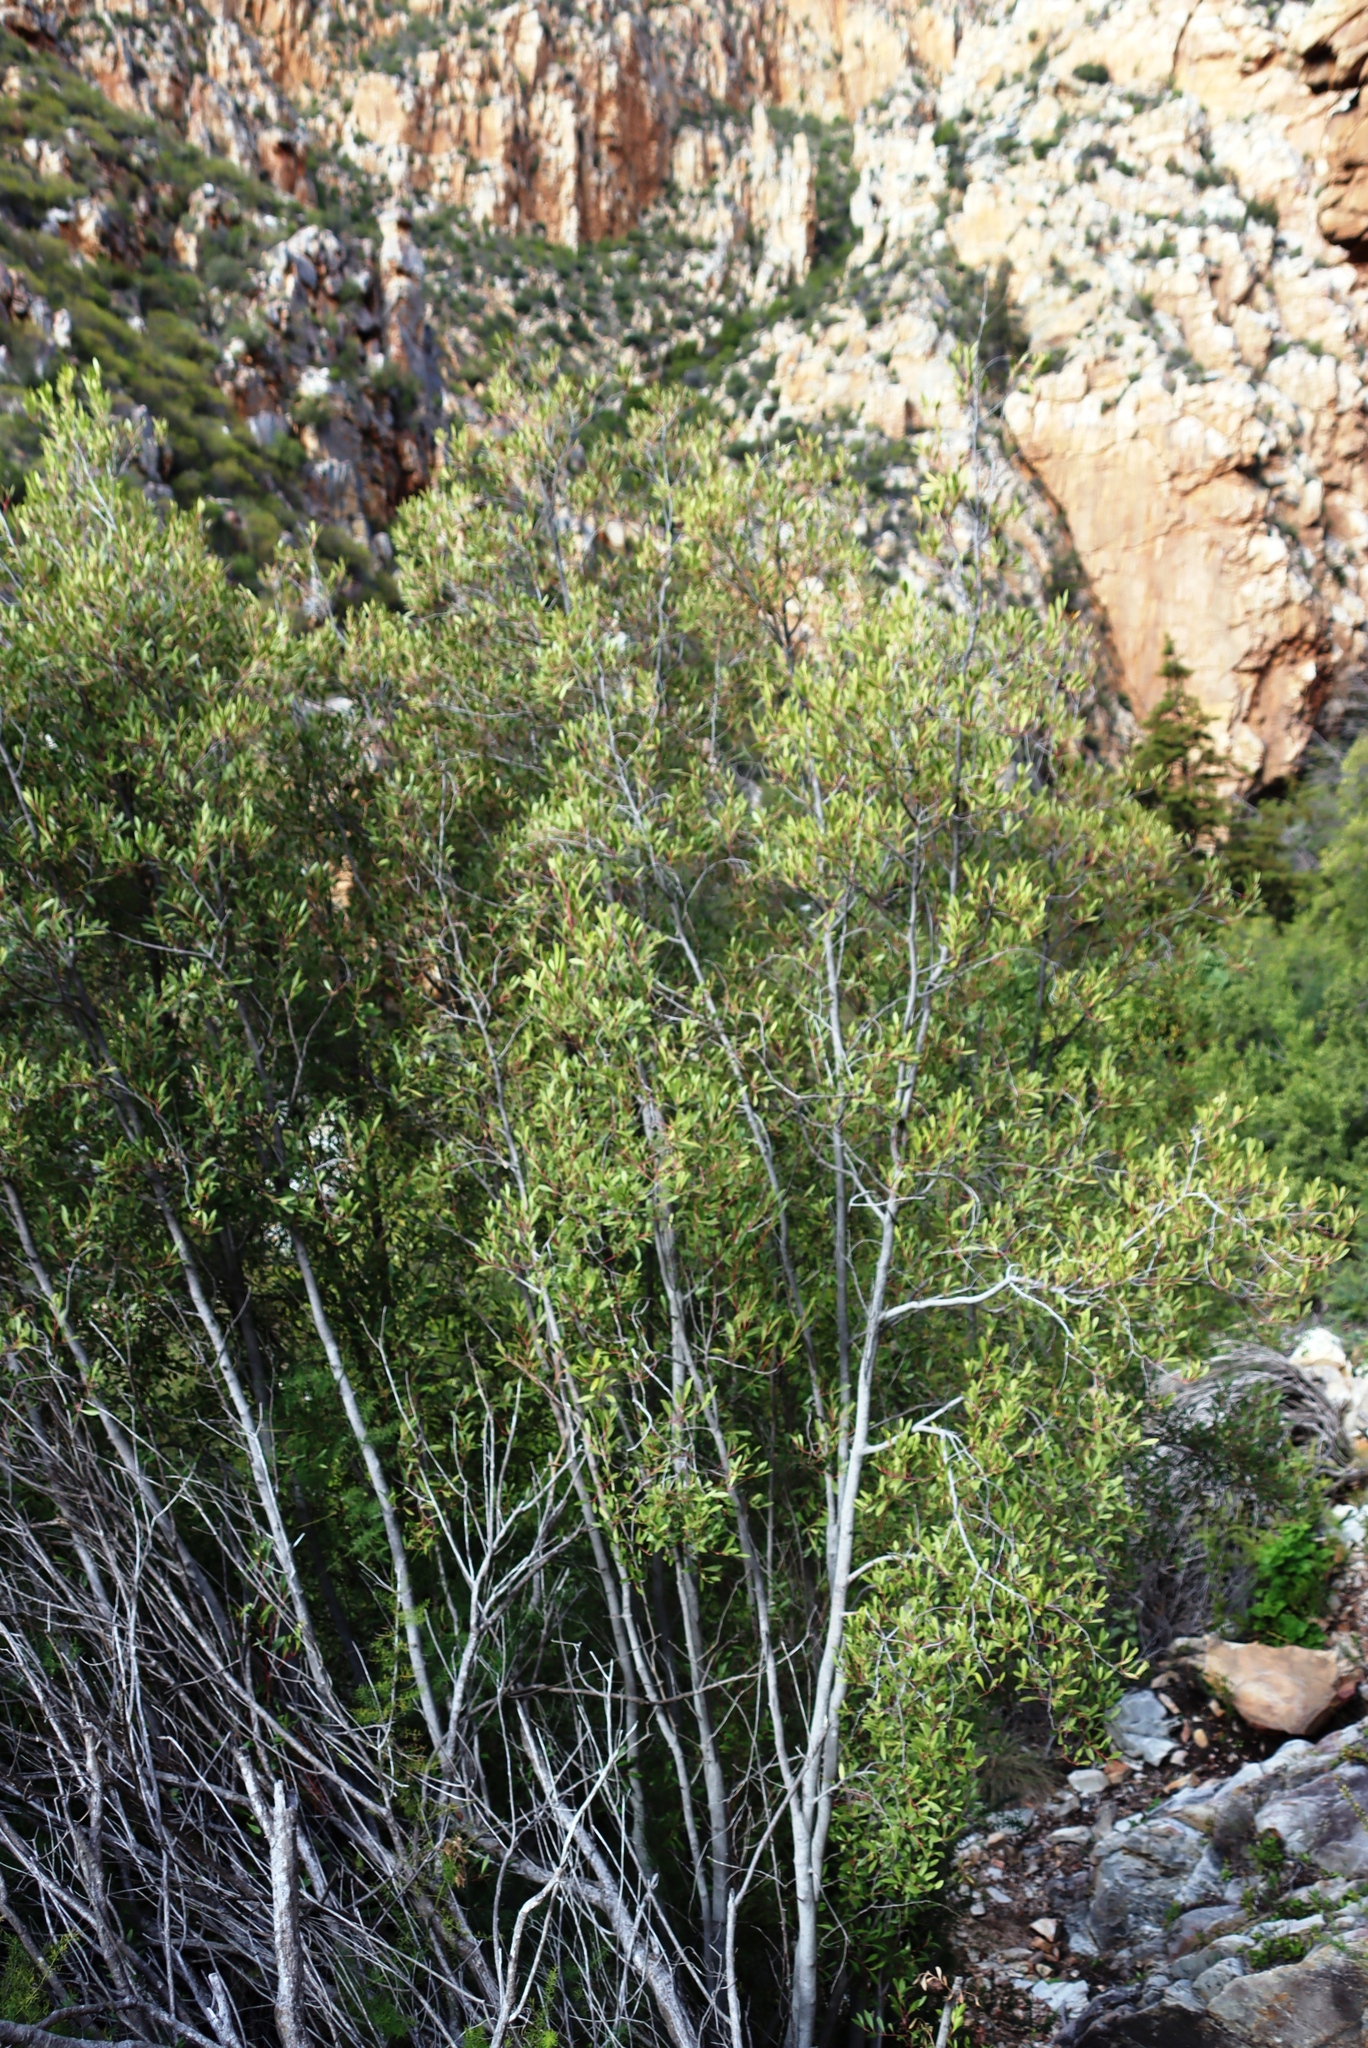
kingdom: Plantae
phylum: Tracheophyta
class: Magnoliopsida
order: Celastrales
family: Celastraceae
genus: Pterocelastrus
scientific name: Pterocelastrus tricuspidatus
